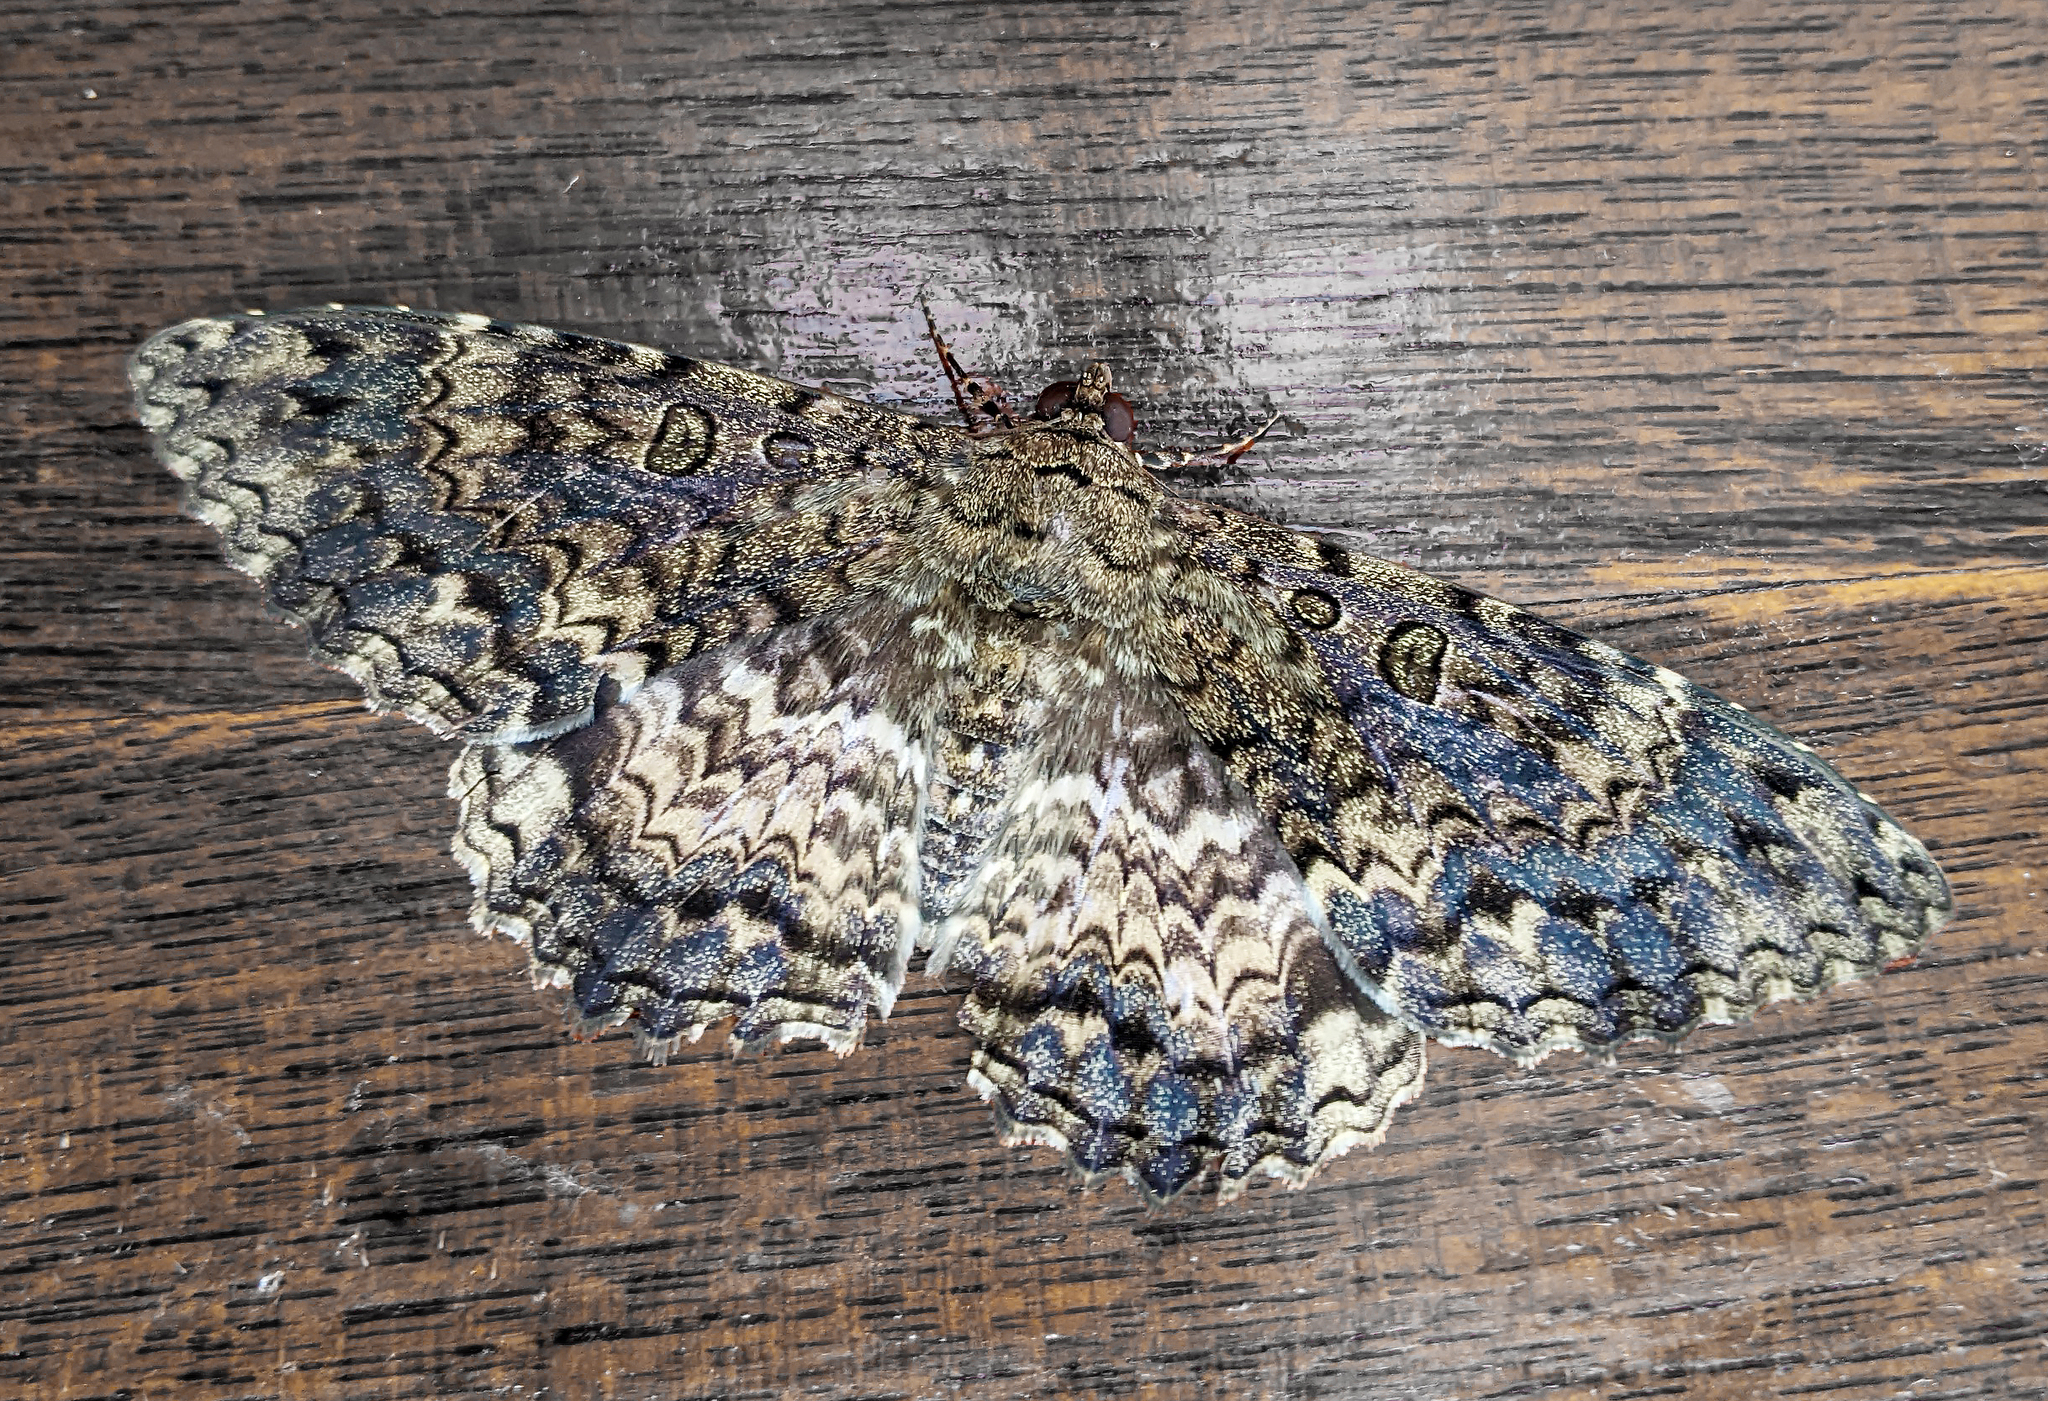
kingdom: Animalia
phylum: Arthropoda
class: Insecta
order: Lepidoptera
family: Erebidae
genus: Feigeria
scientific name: Feigeria scops
